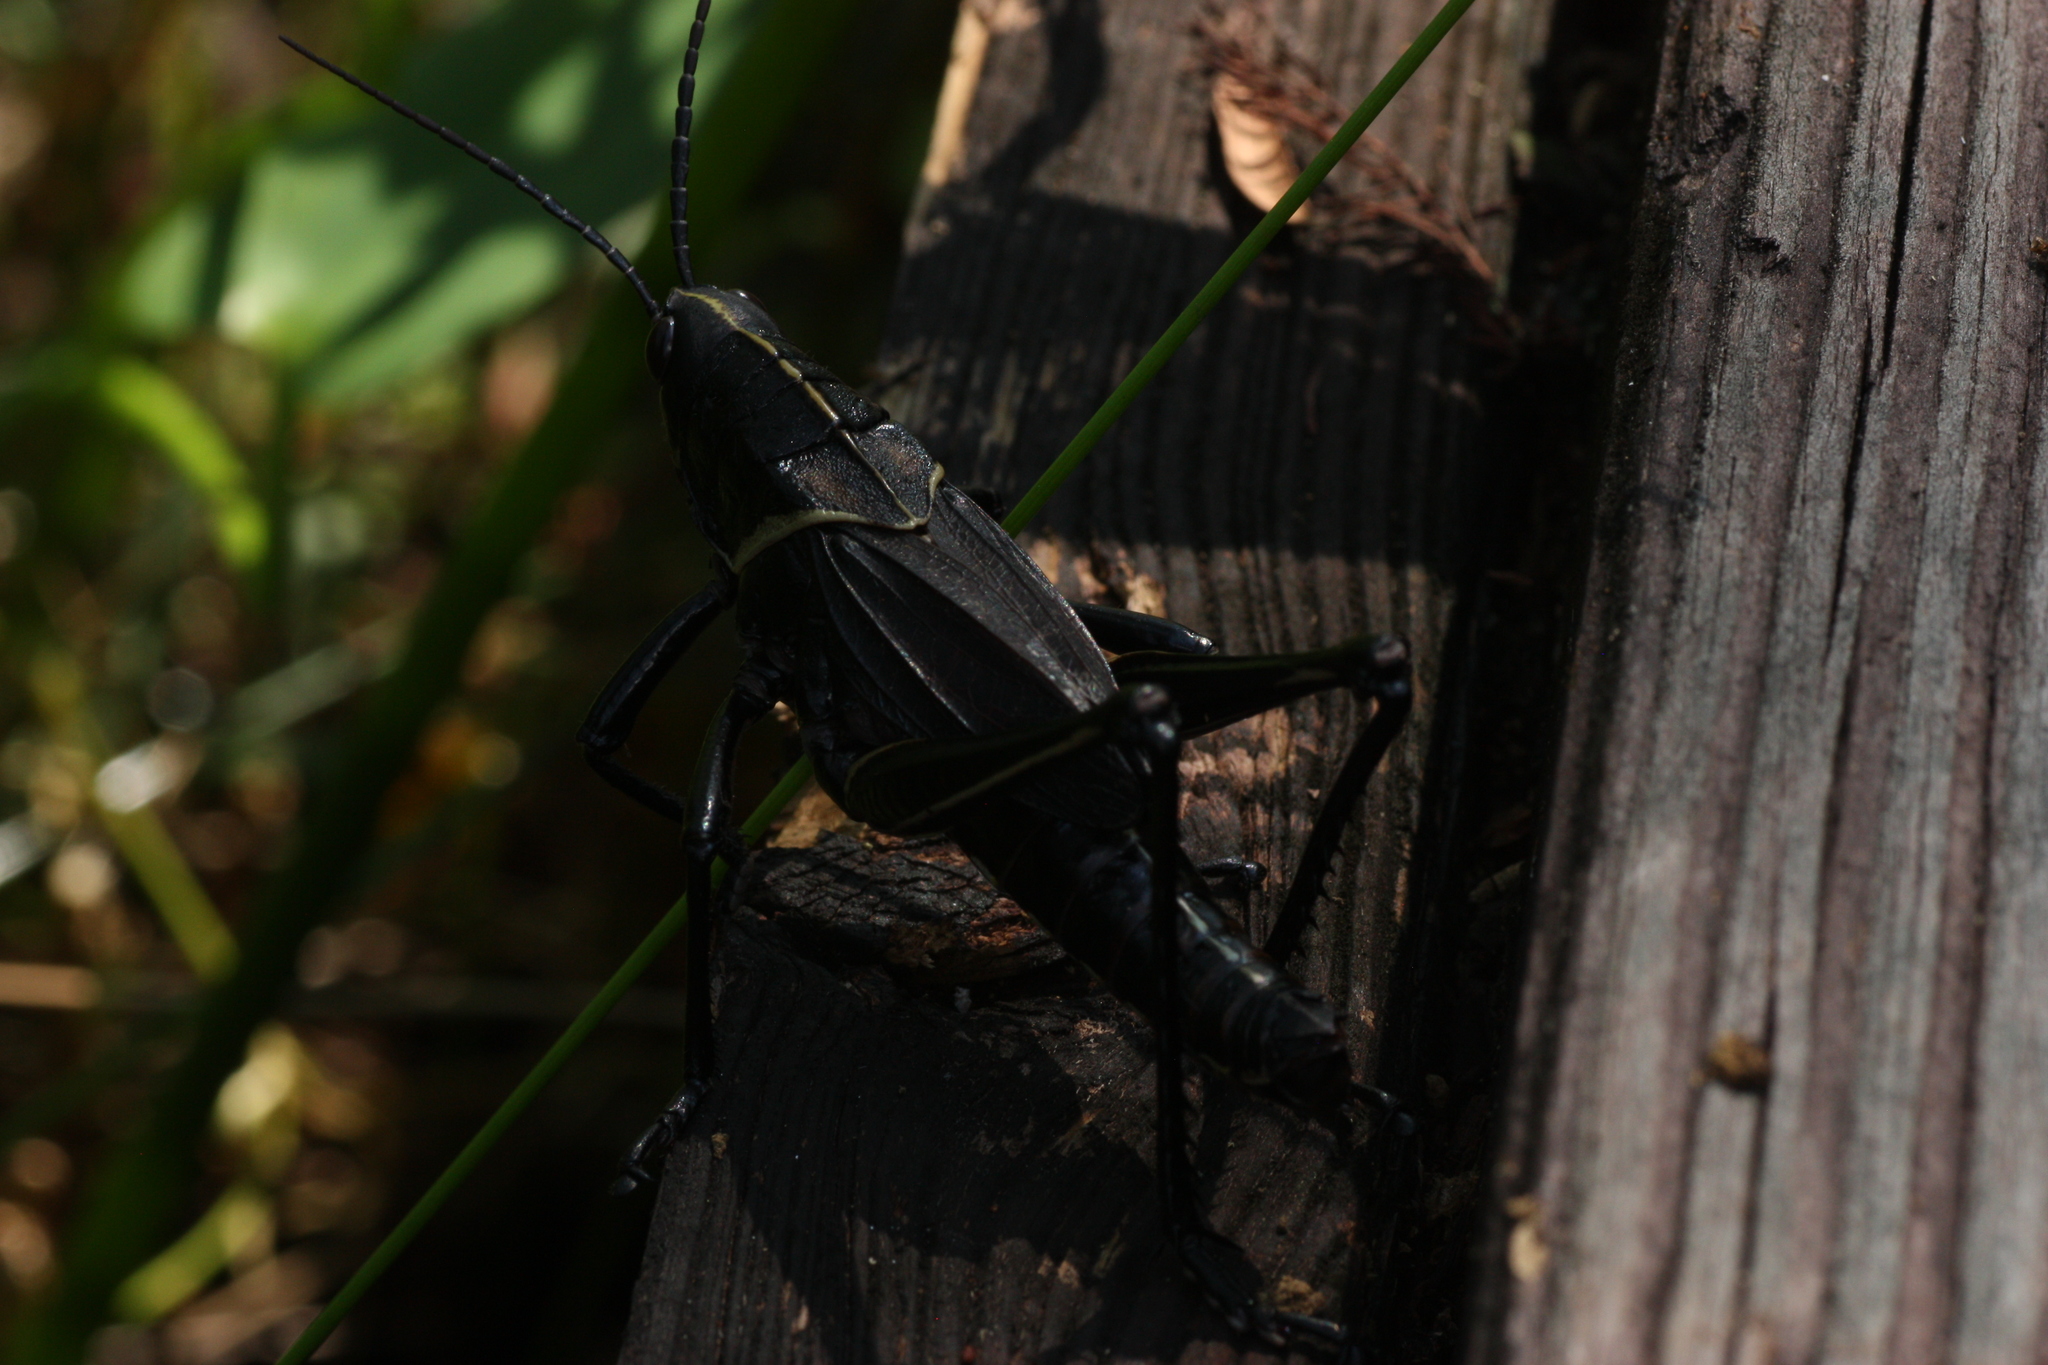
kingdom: Animalia
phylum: Arthropoda
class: Insecta
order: Orthoptera
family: Romaleidae
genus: Romalea
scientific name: Romalea microptera
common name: Eastern lubber grasshopper
